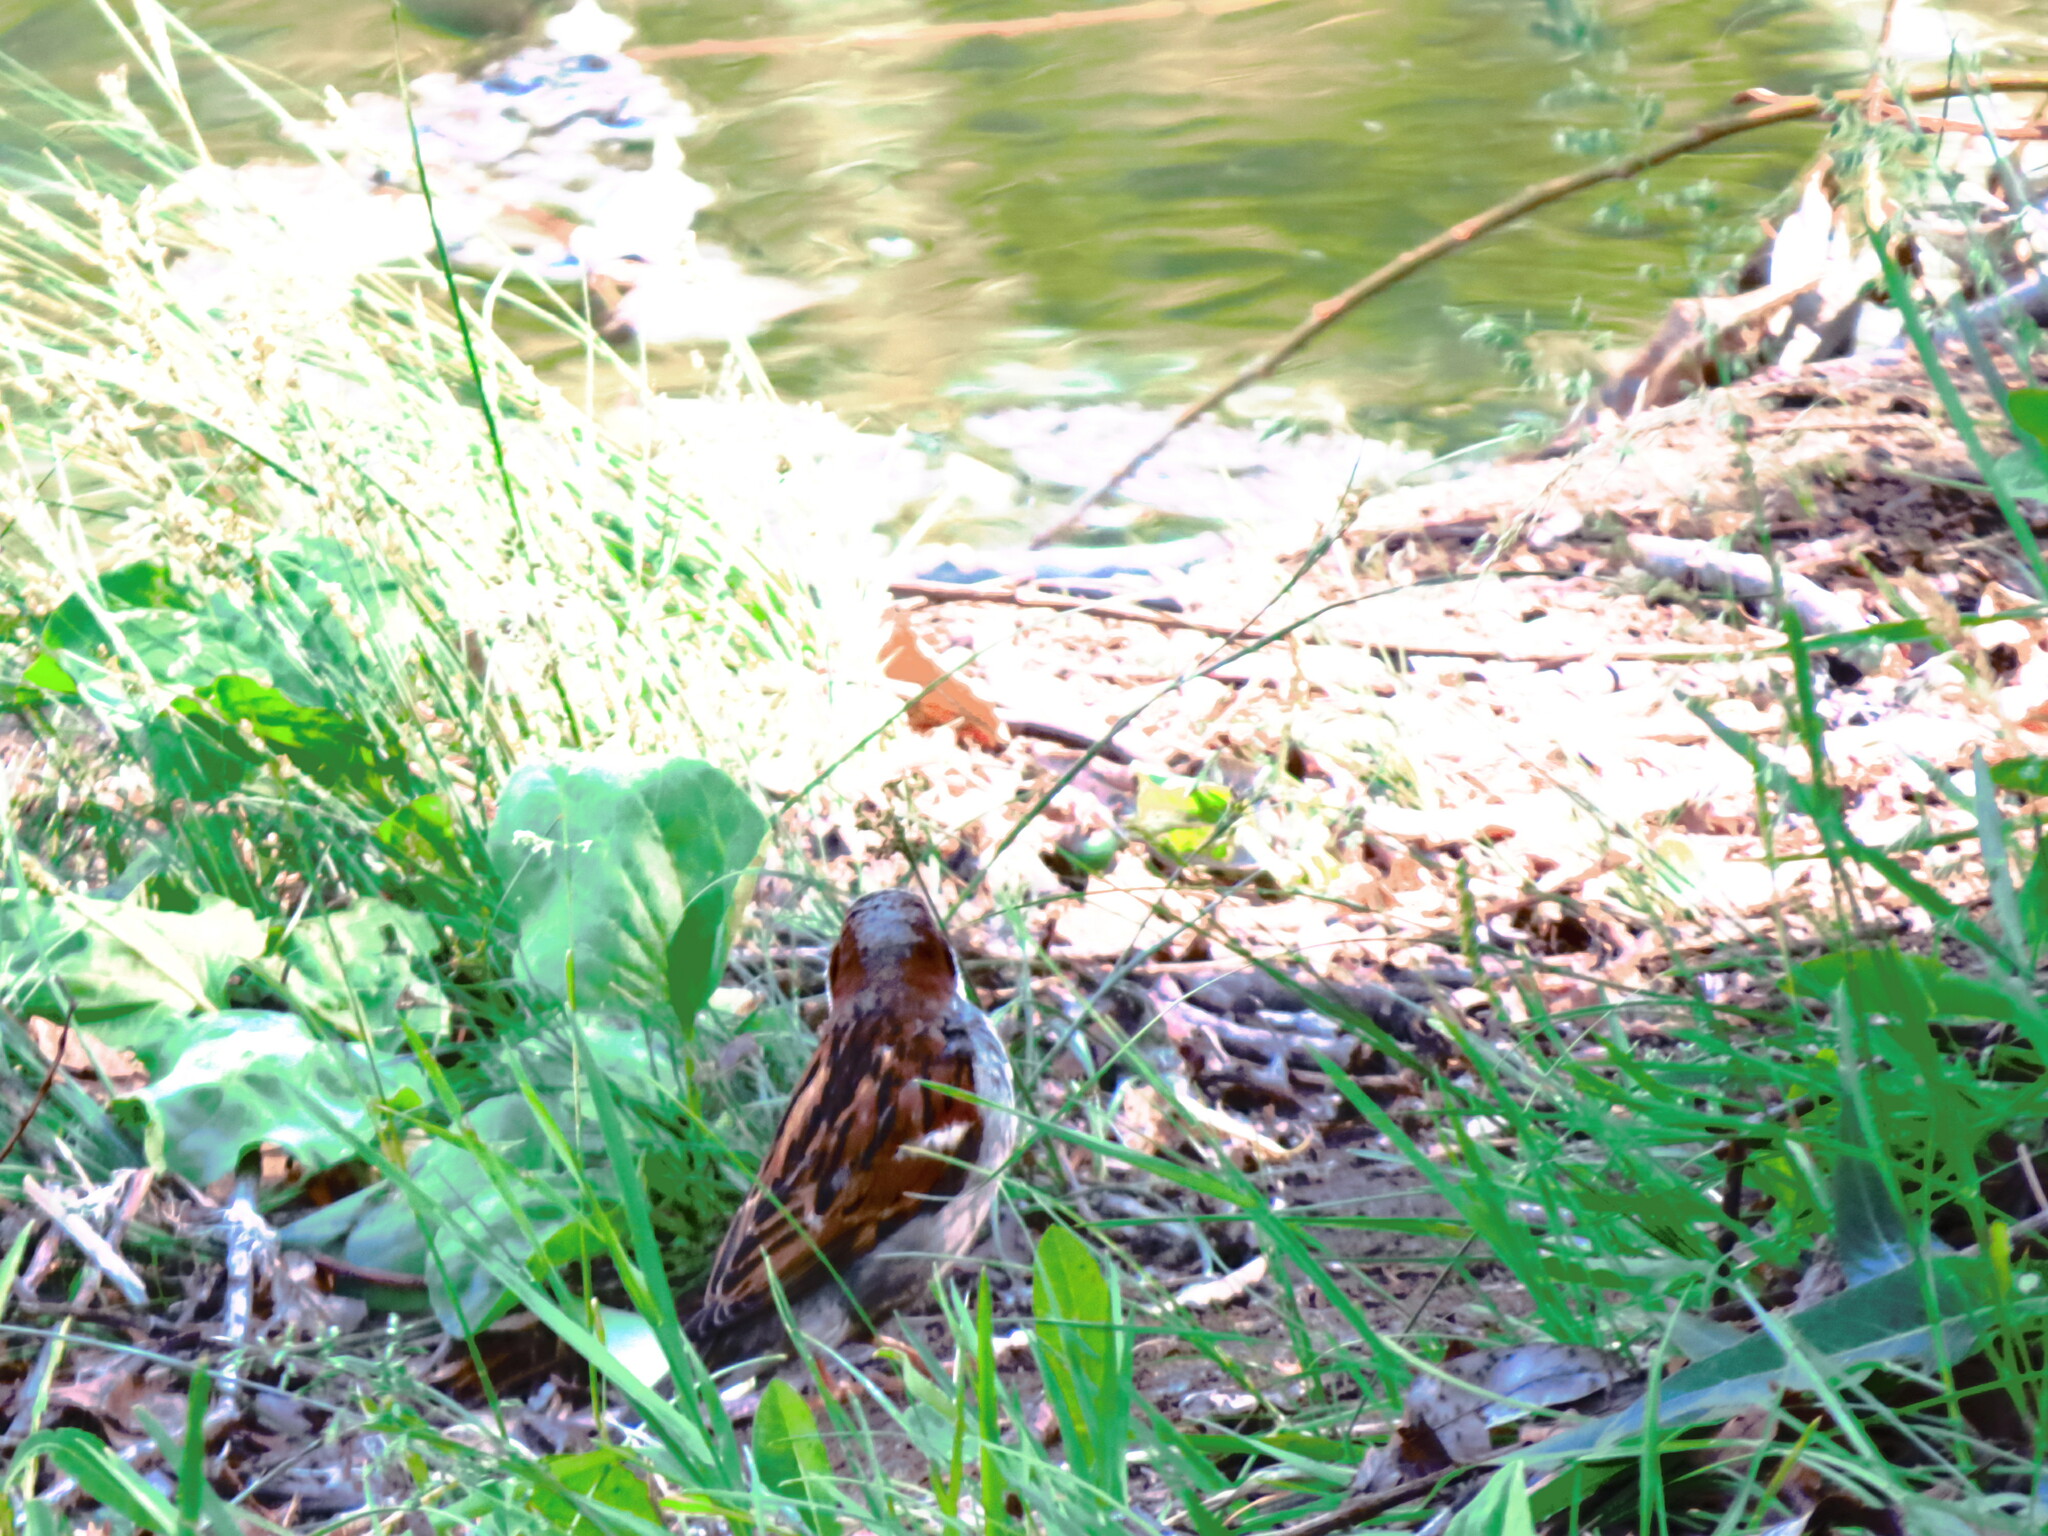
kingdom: Animalia
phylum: Chordata
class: Aves
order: Passeriformes
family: Passeridae
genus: Passer
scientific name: Passer domesticus
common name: House sparrow
